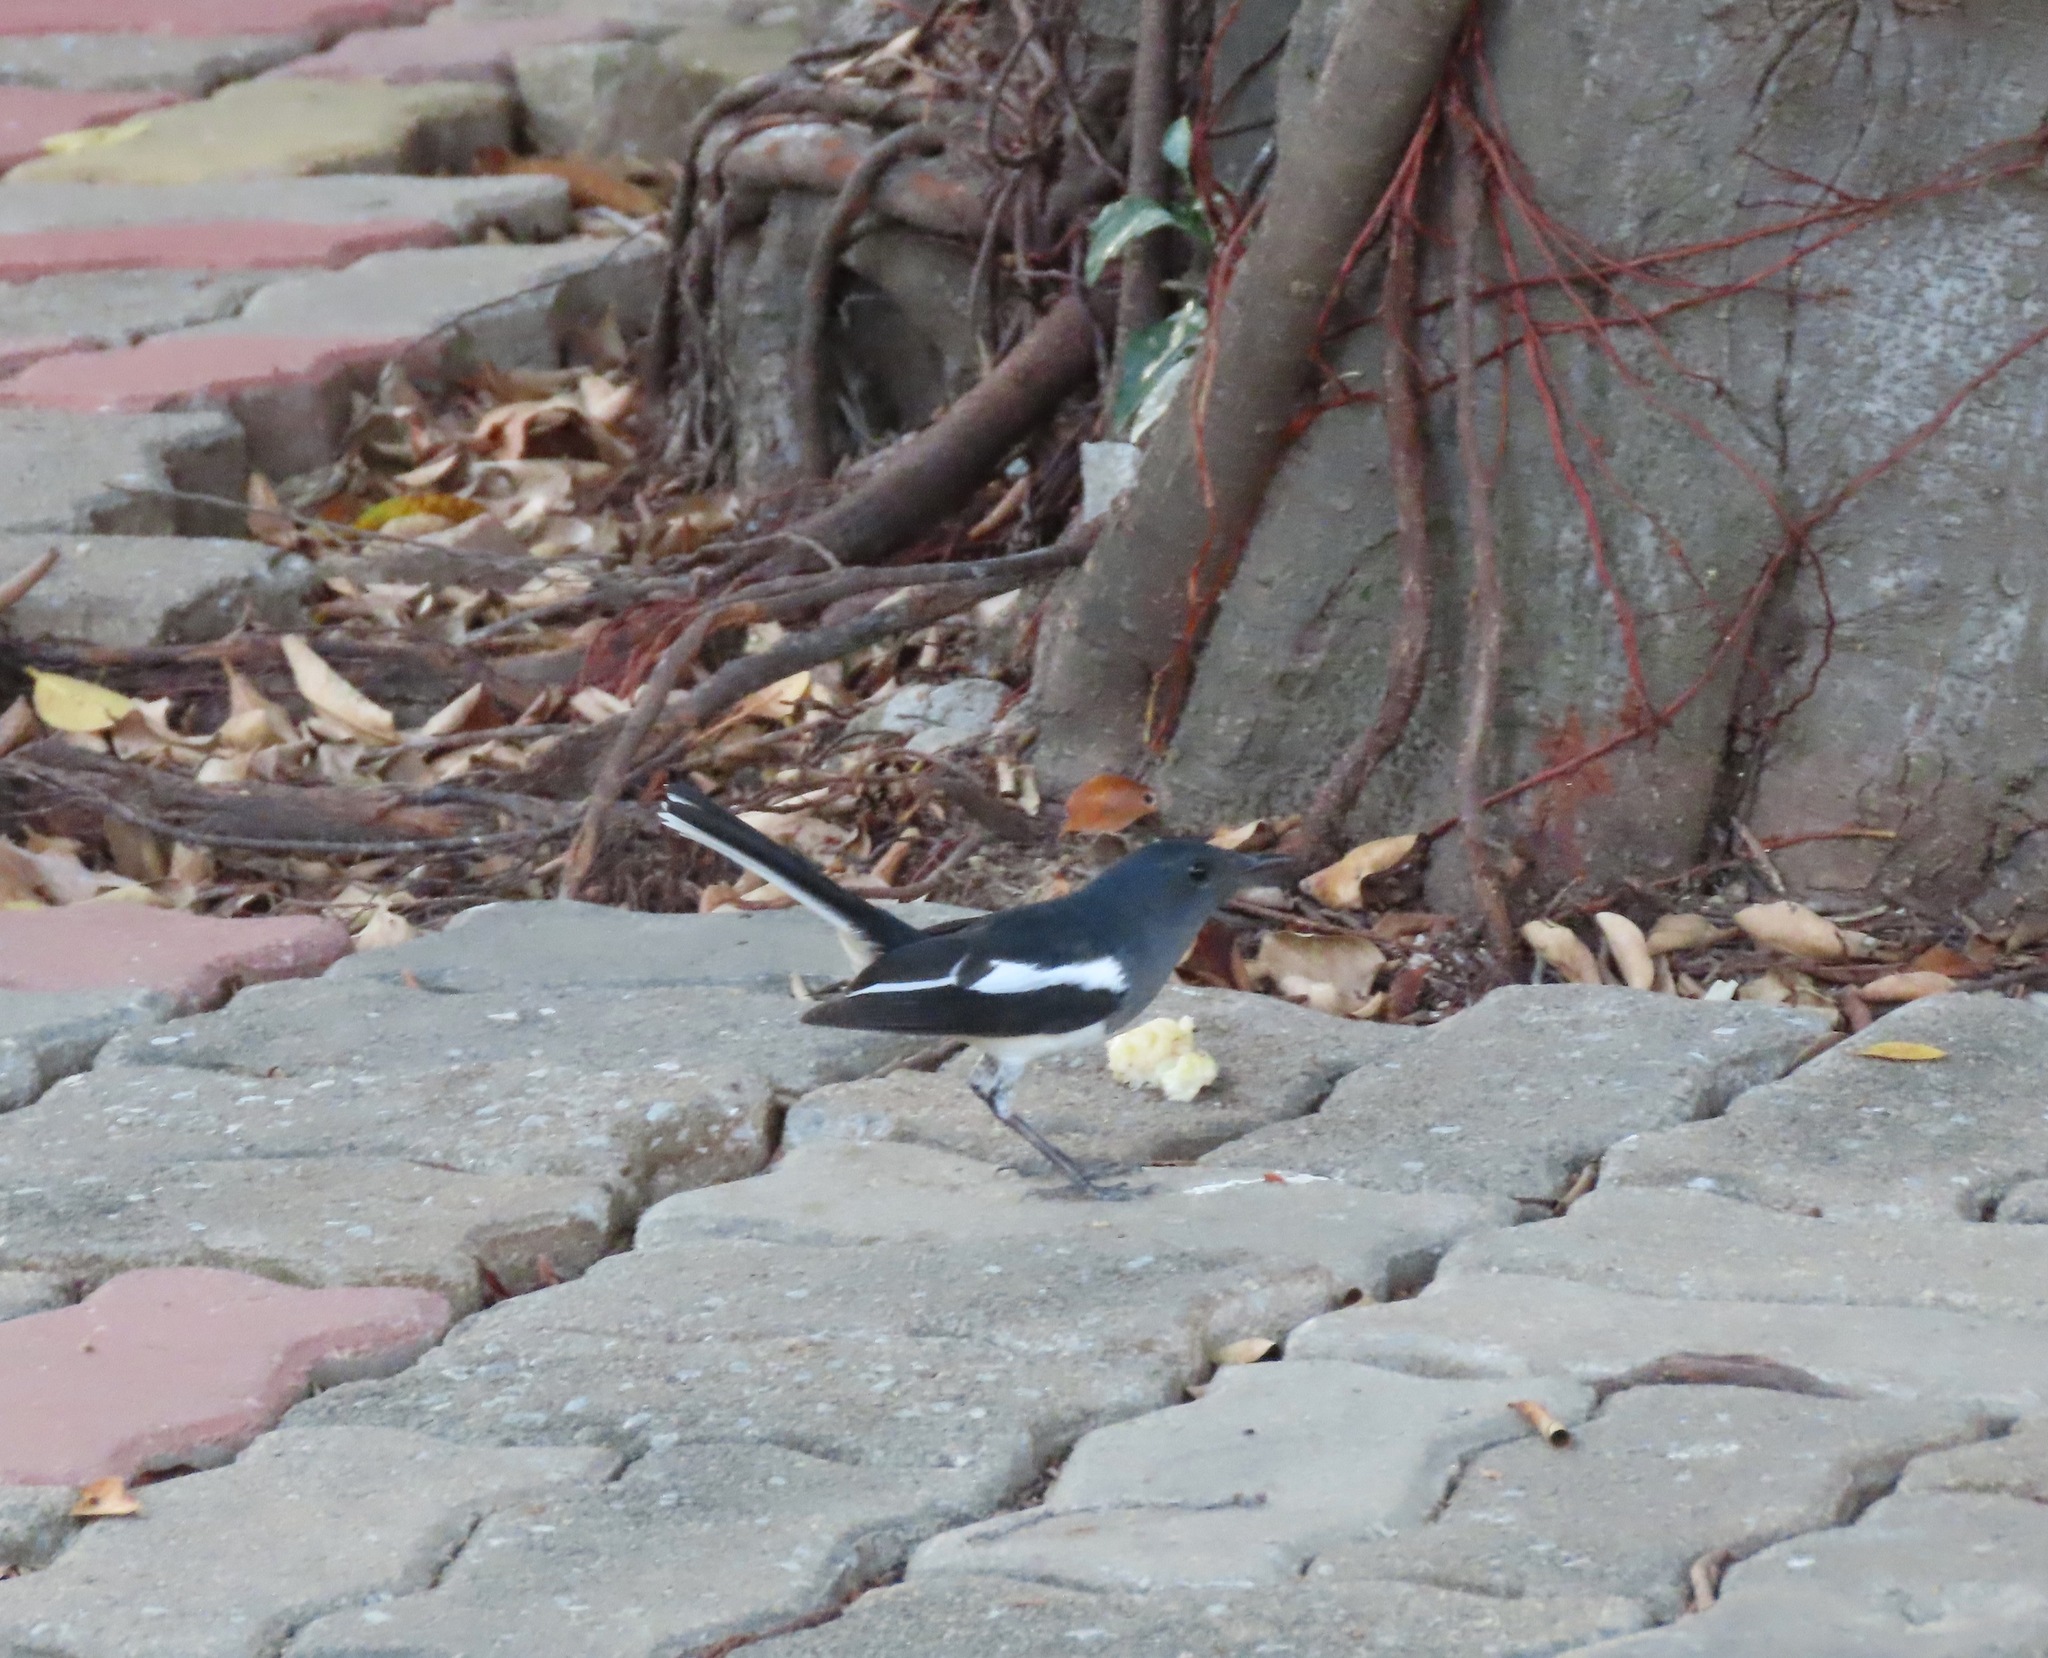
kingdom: Animalia
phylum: Chordata
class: Aves
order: Passeriformes
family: Muscicapidae
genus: Copsychus
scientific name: Copsychus saularis
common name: Oriental magpie-robin
